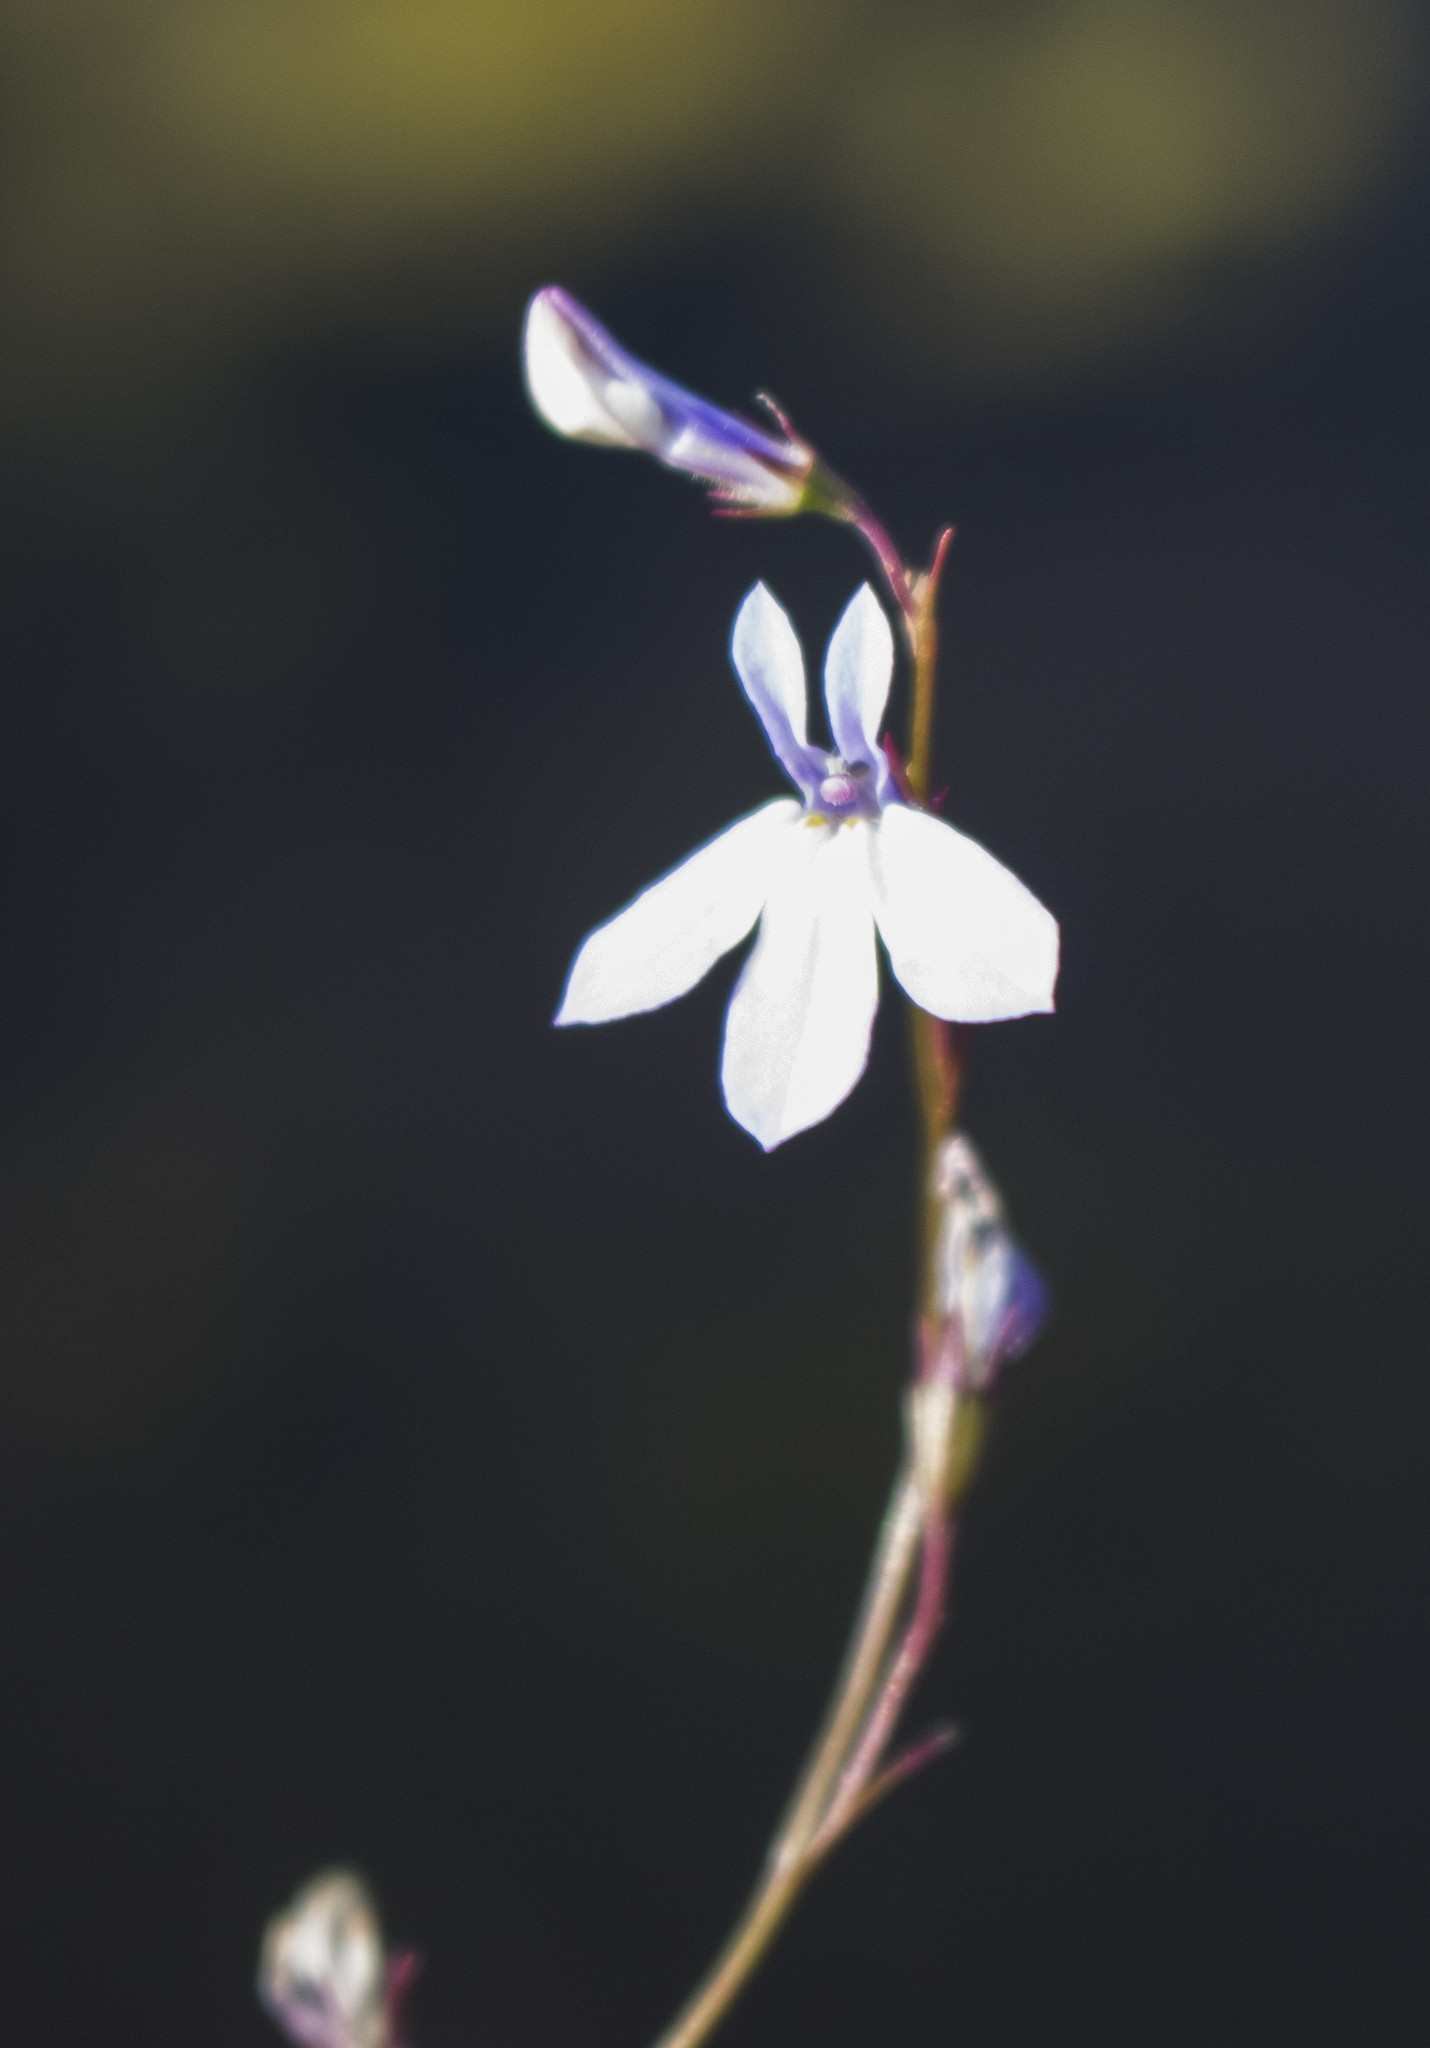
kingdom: Plantae
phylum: Tracheophyta
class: Magnoliopsida
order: Asterales
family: Campanulaceae
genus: Lobelia
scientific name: Lobelia kalmii
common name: Kalm's lobelia
